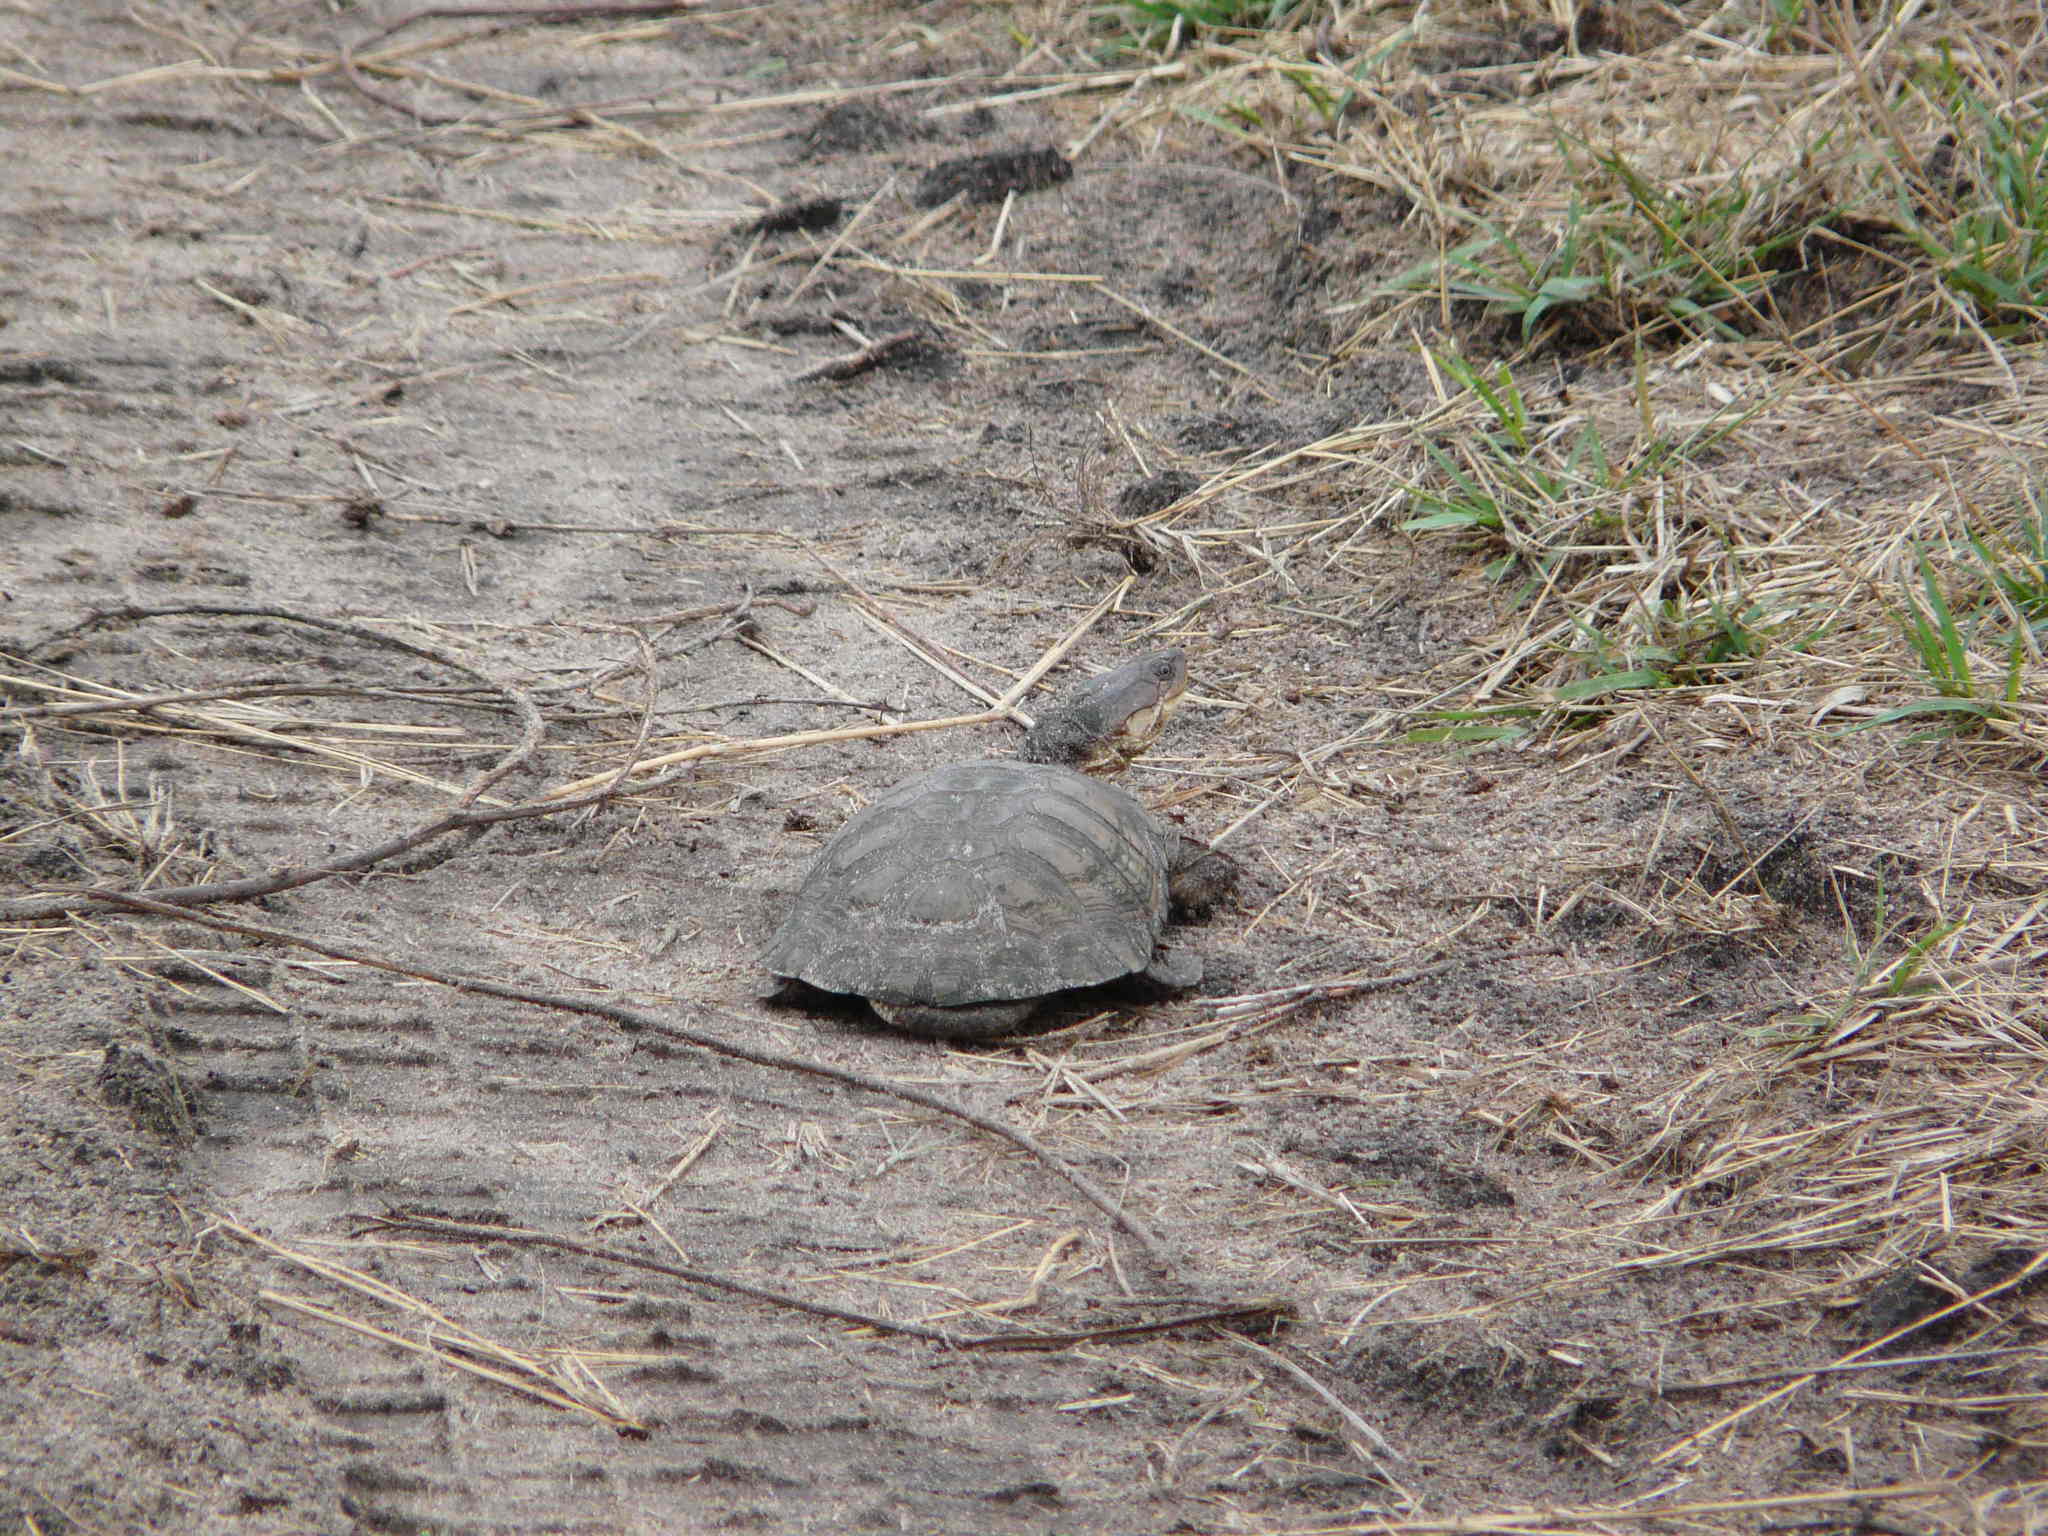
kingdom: Animalia
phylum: Chordata
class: Testudines
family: Pelomedusidae
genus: Pelomedusa
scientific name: Pelomedusa subrufa
